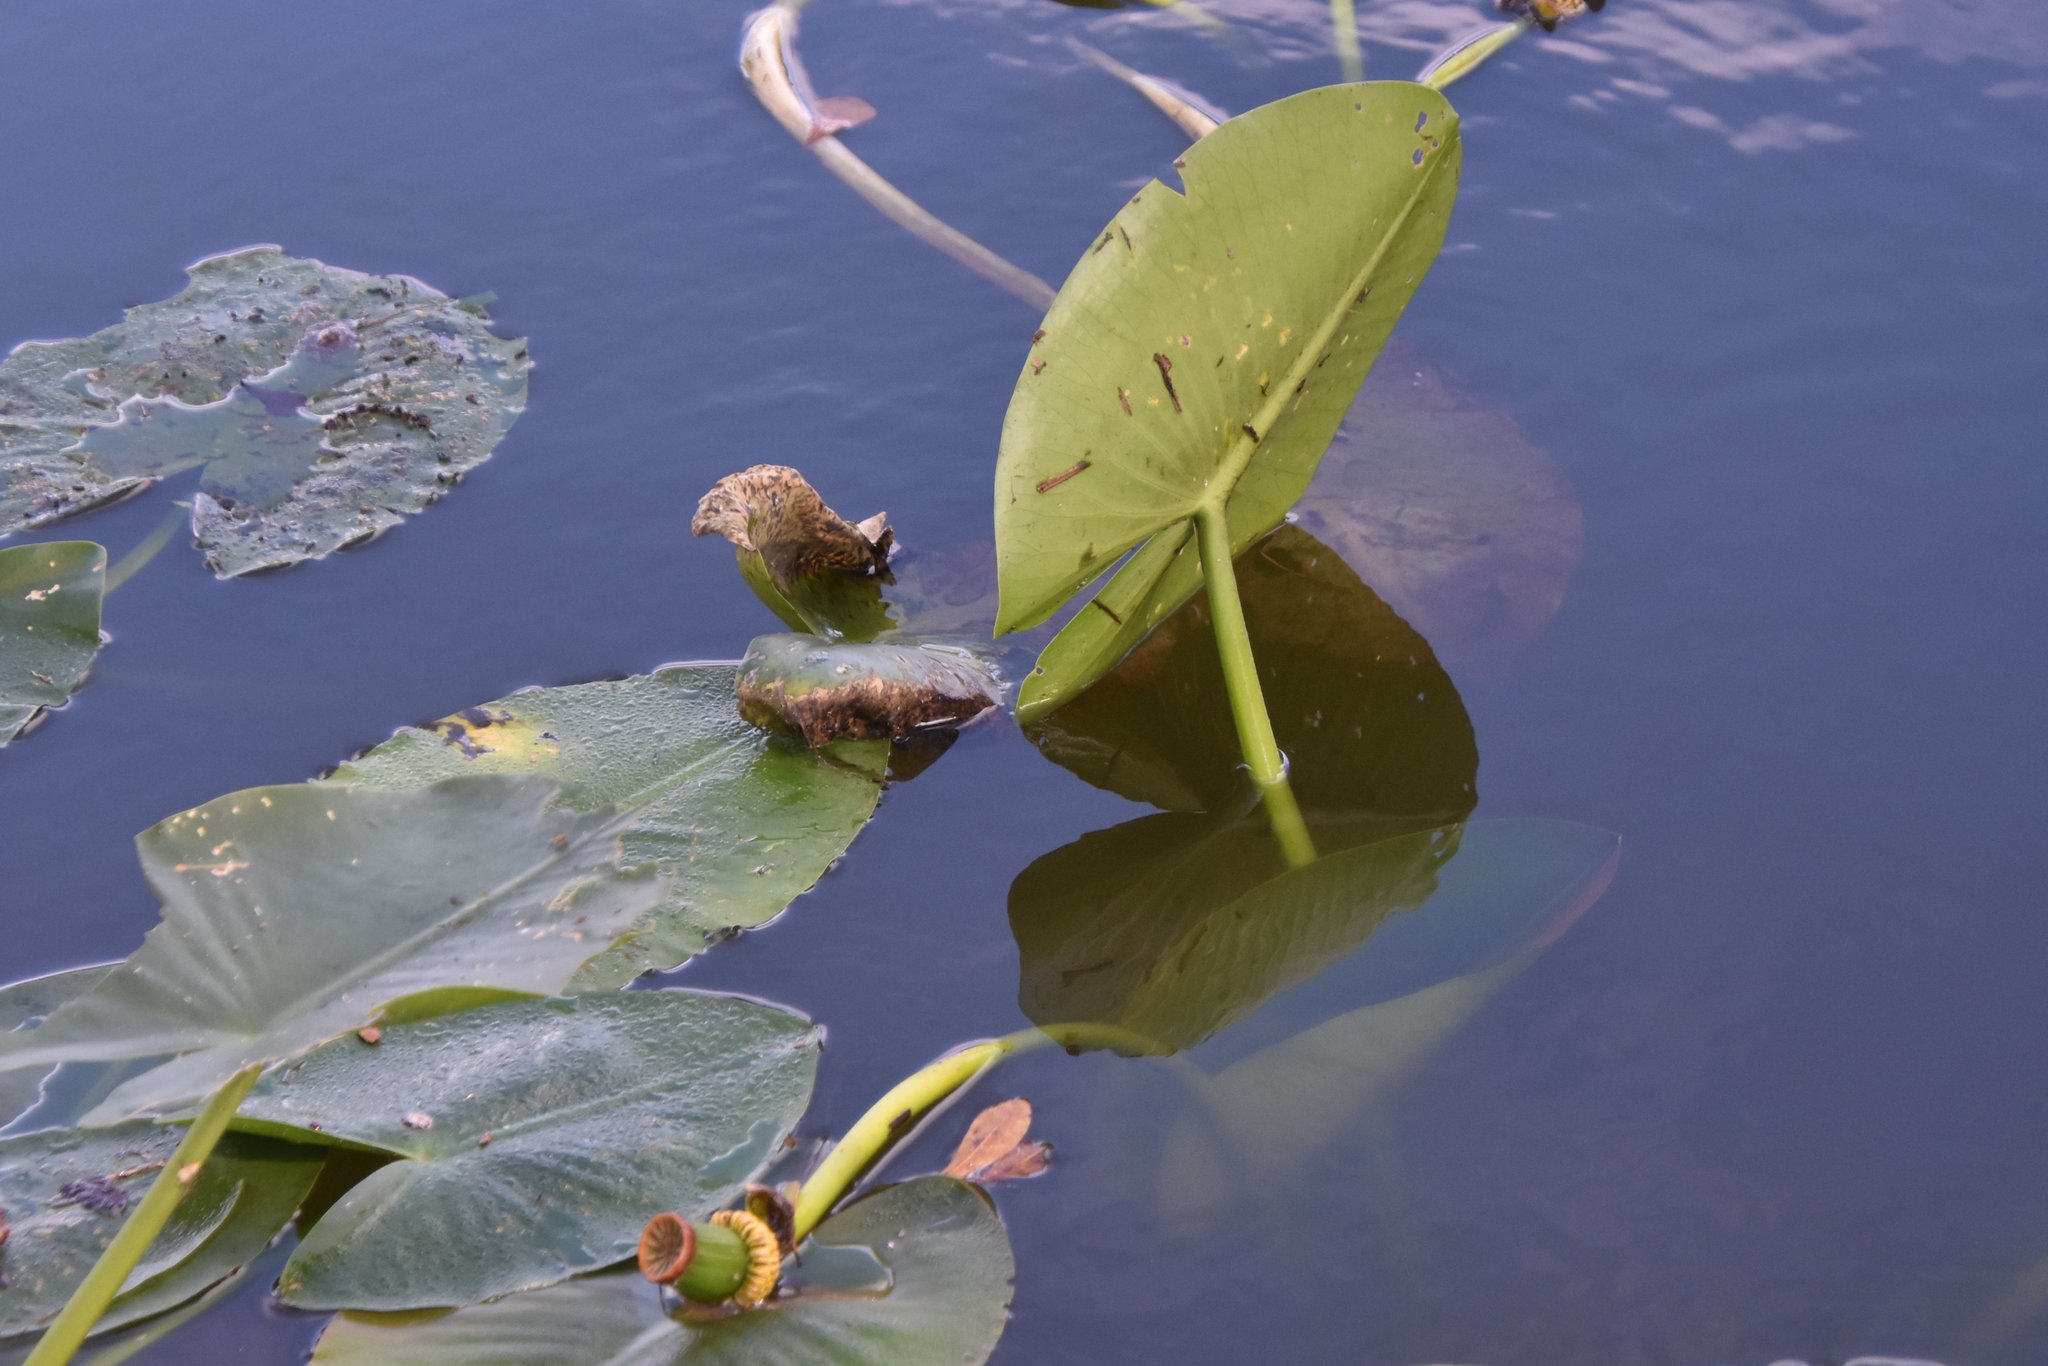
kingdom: Plantae
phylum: Tracheophyta
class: Magnoliopsida
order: Nymphaeales
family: Nymphaeaceae
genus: Nuphar
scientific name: Nuphar advena
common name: Spatter-dock
